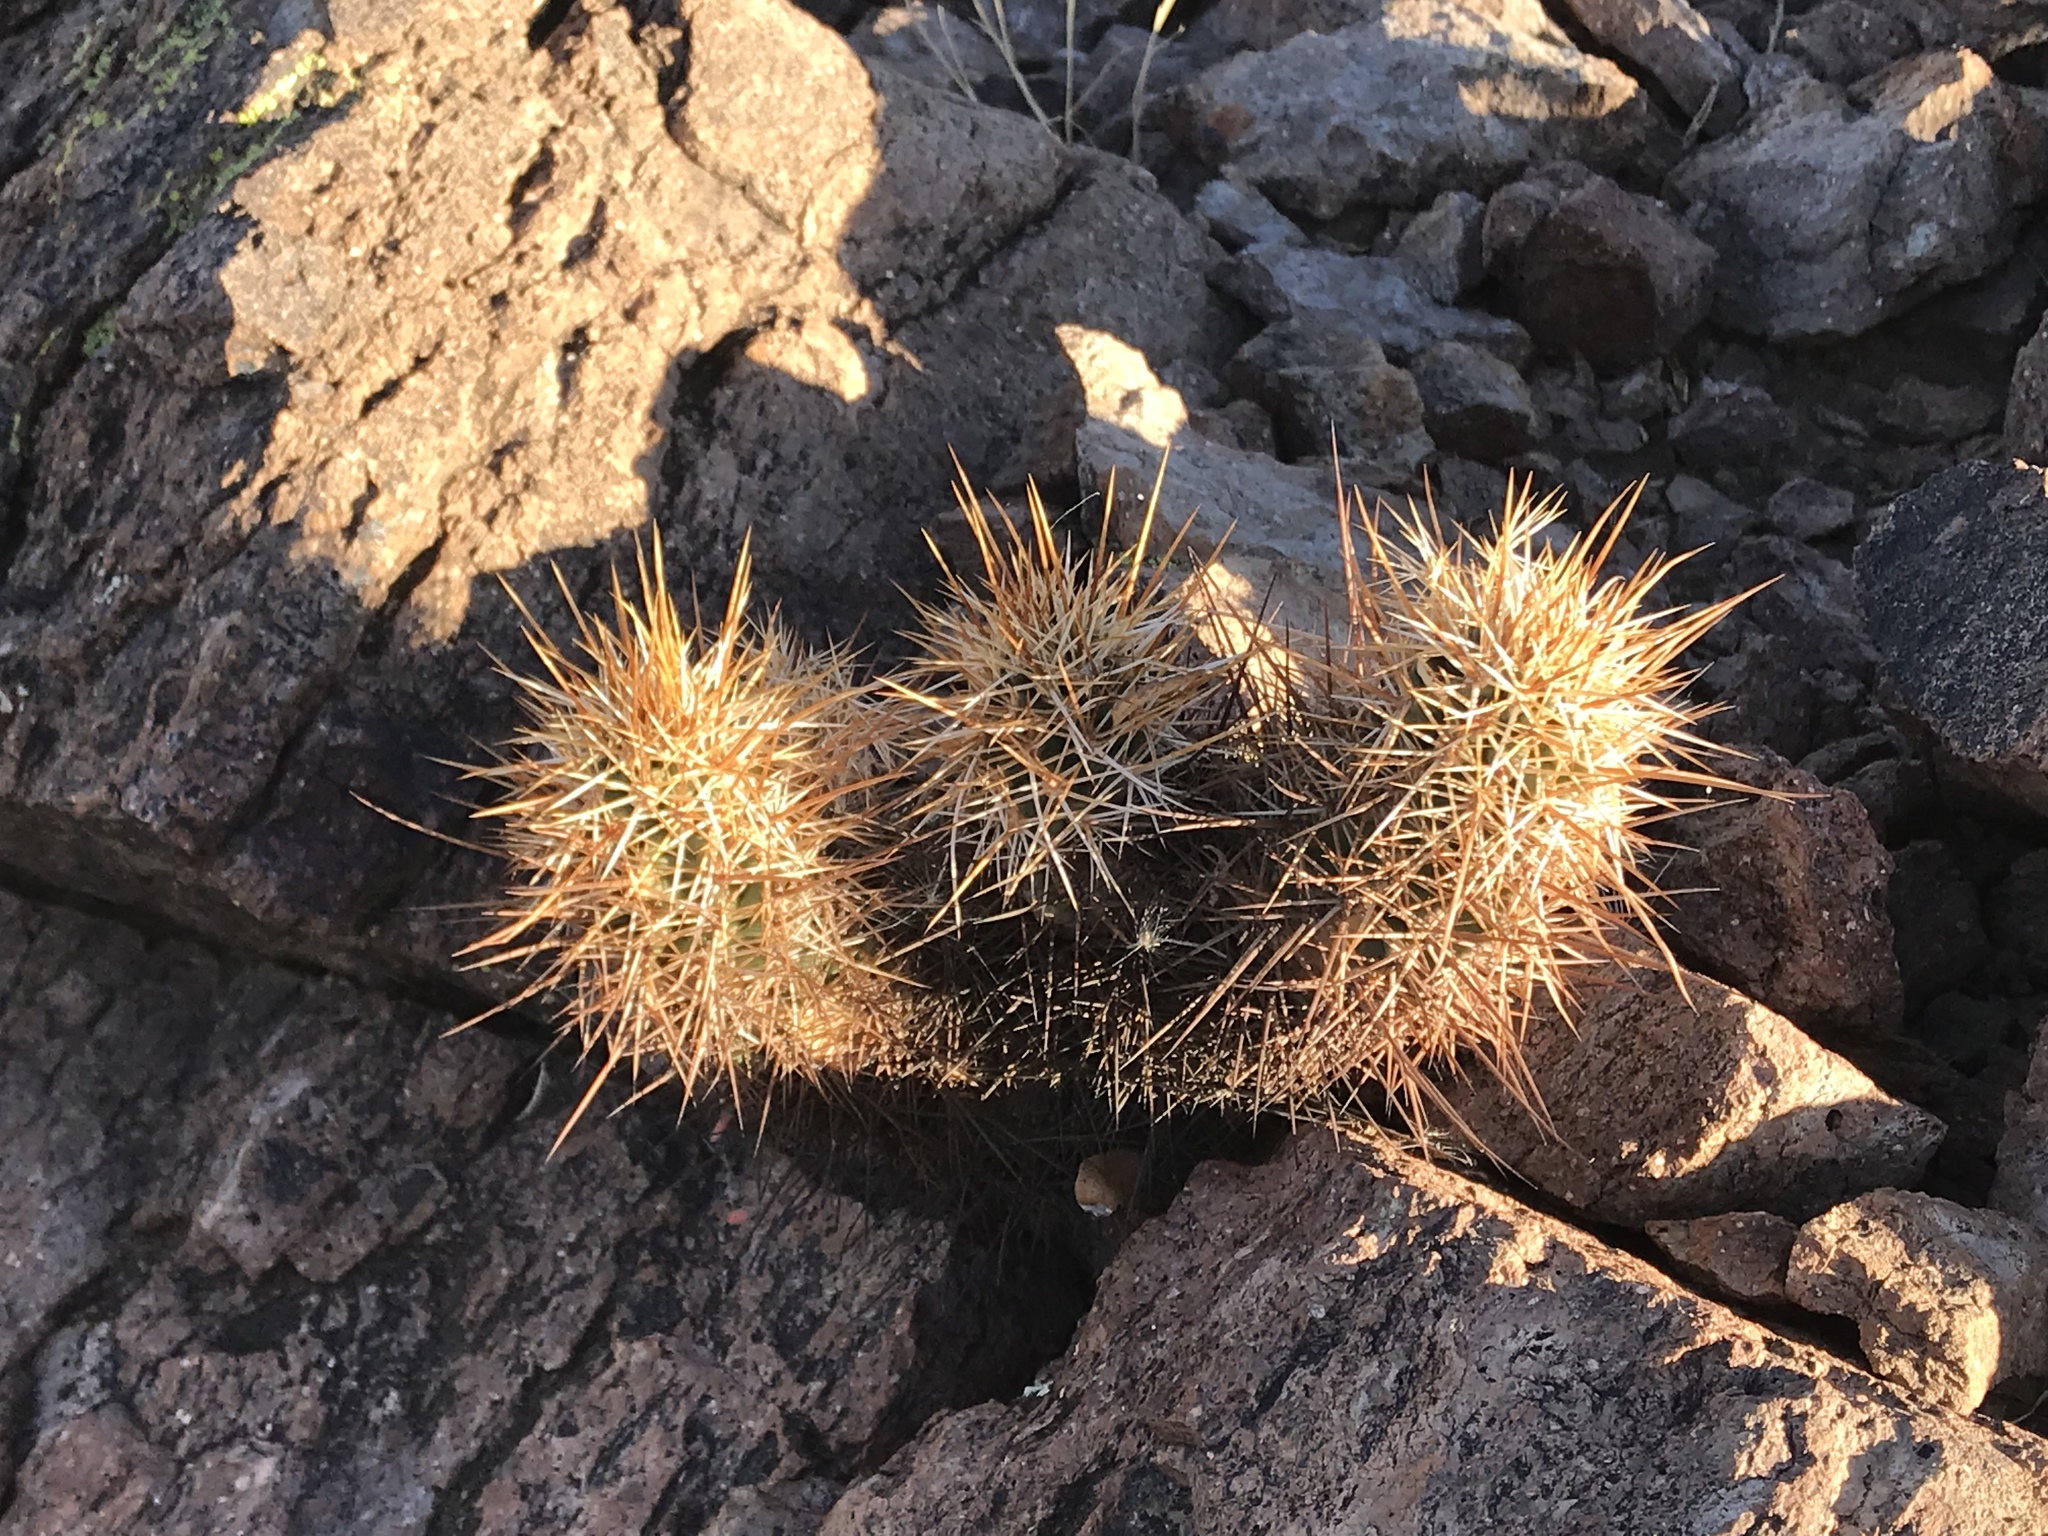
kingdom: Plantae
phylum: Tracheophyta
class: Magnoliopsida
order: Caryophyllales
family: Cactaceae
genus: Echinocereus
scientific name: Echinocereus engelmannii
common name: Engelmann's hedgehog cactus
